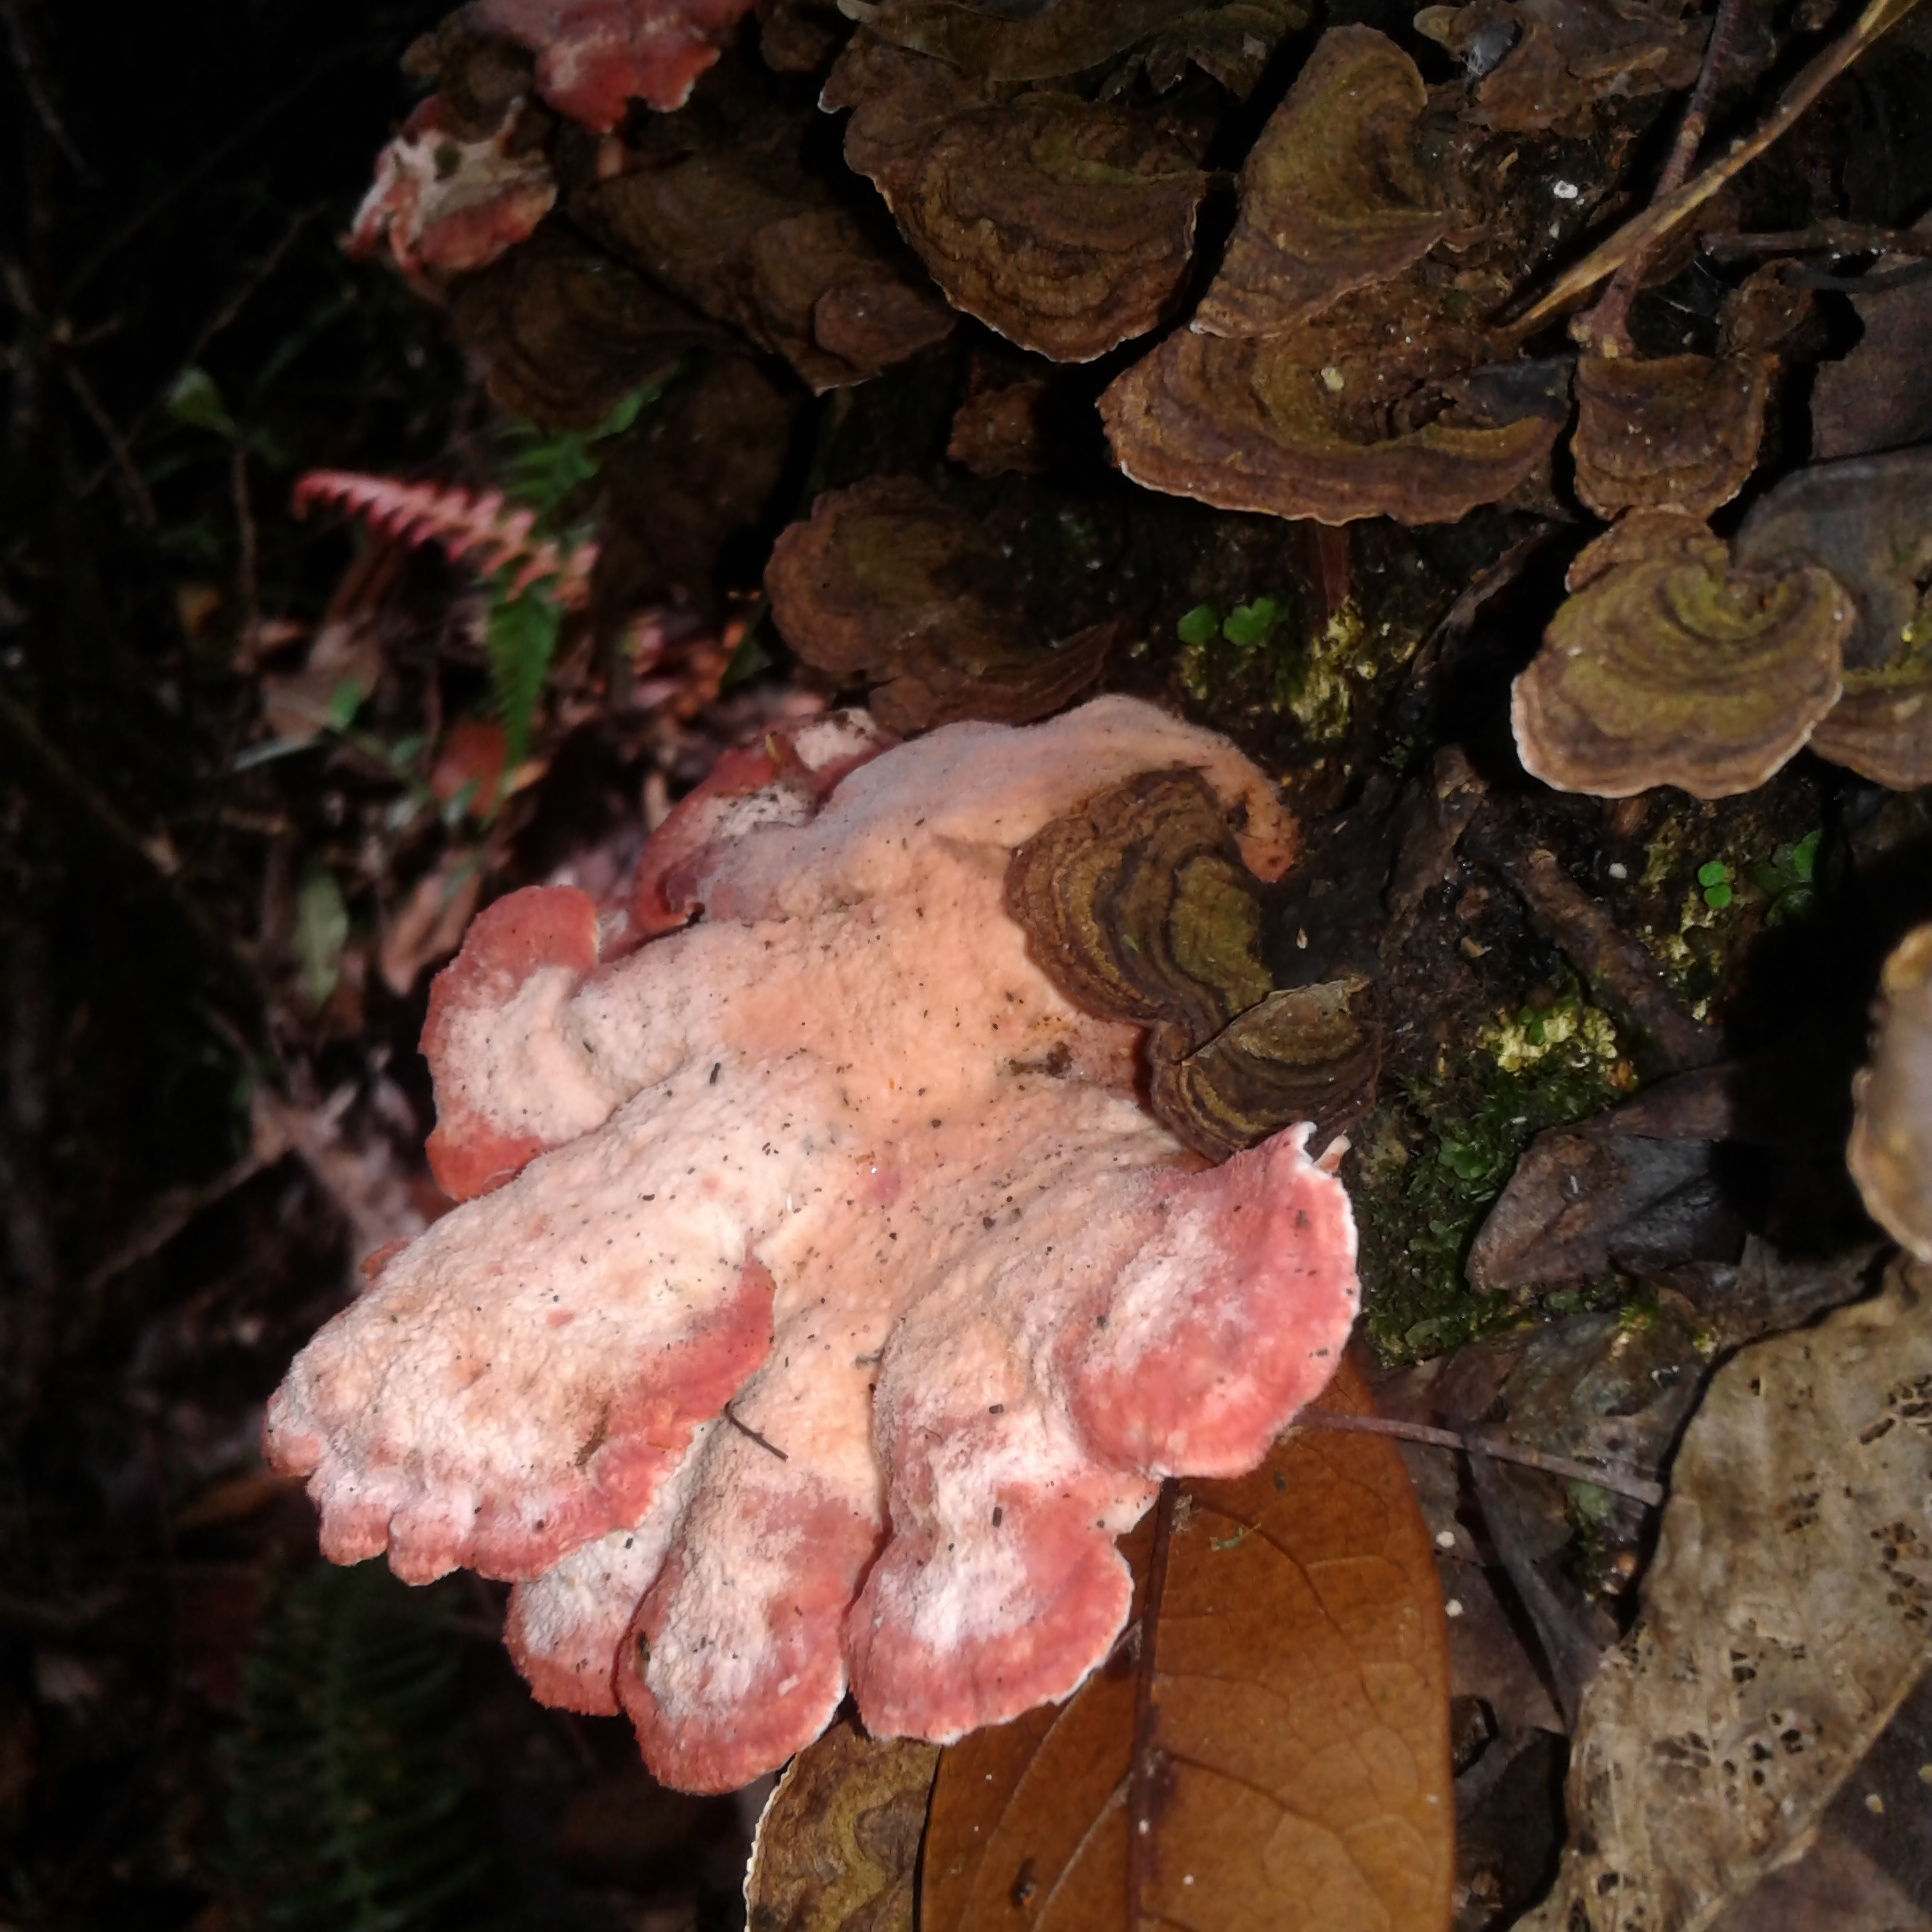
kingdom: Fungi
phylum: Basidiomycota
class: Agaricomycetes
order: Polyporales
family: Irpicaceae
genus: Byssomerulius
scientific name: Byssomerulius incarnatus
